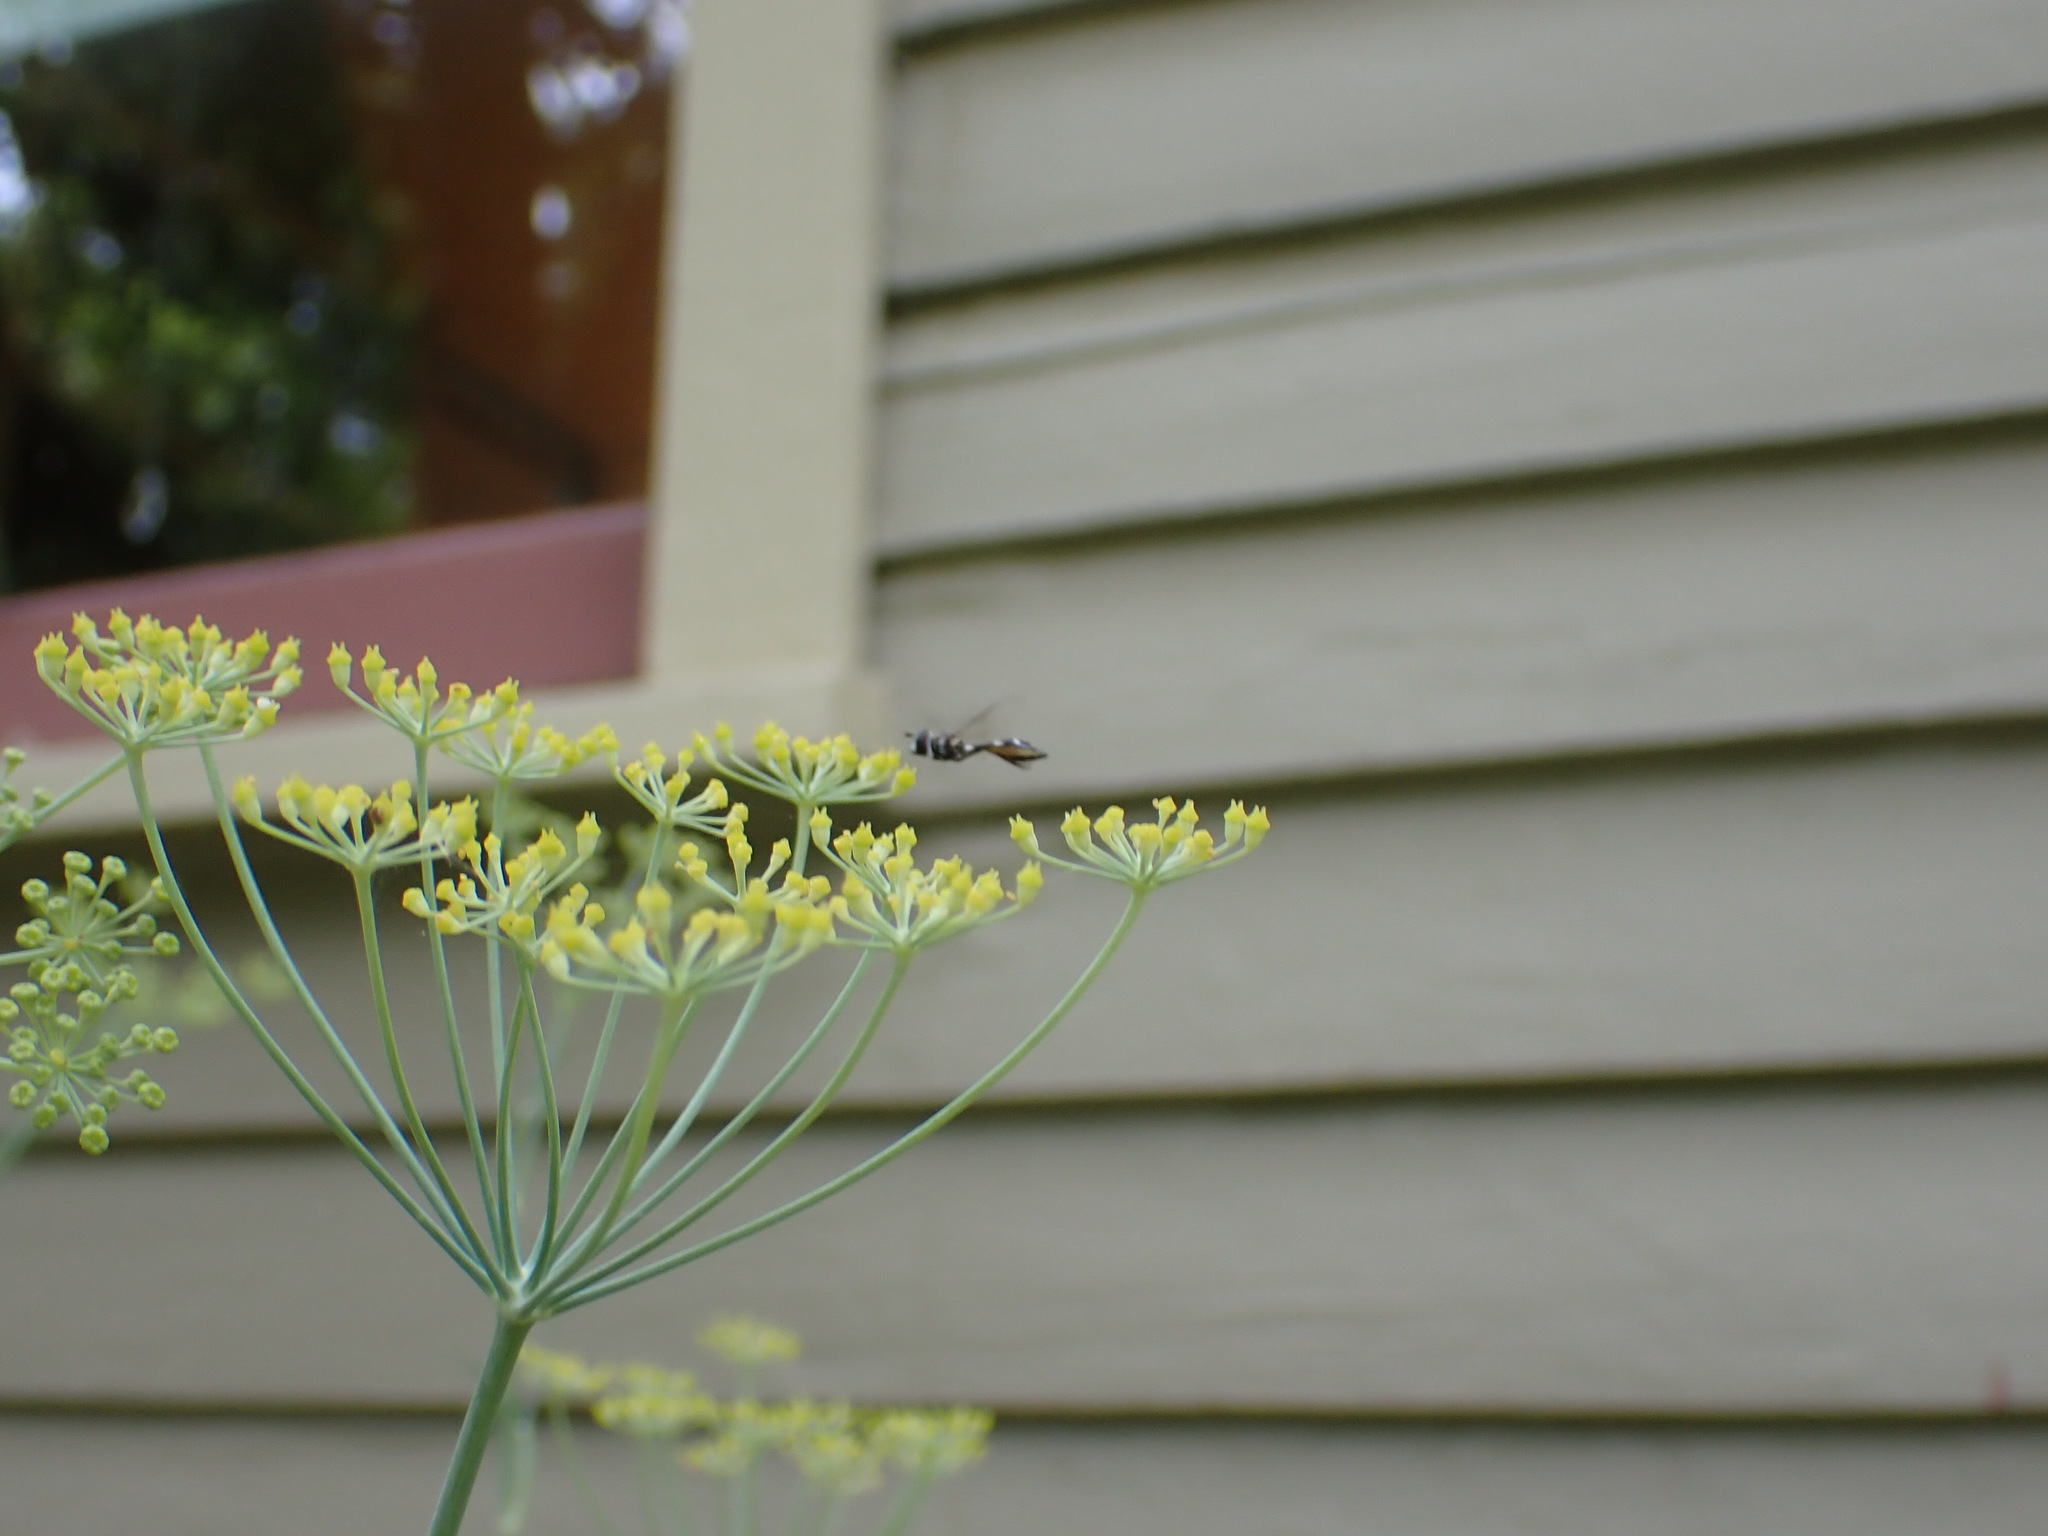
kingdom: Animalia
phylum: Arthropoda
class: Insecta
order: Diptera
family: Syrphidae
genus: Dioprosopa
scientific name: Dioprosopa clavatus
